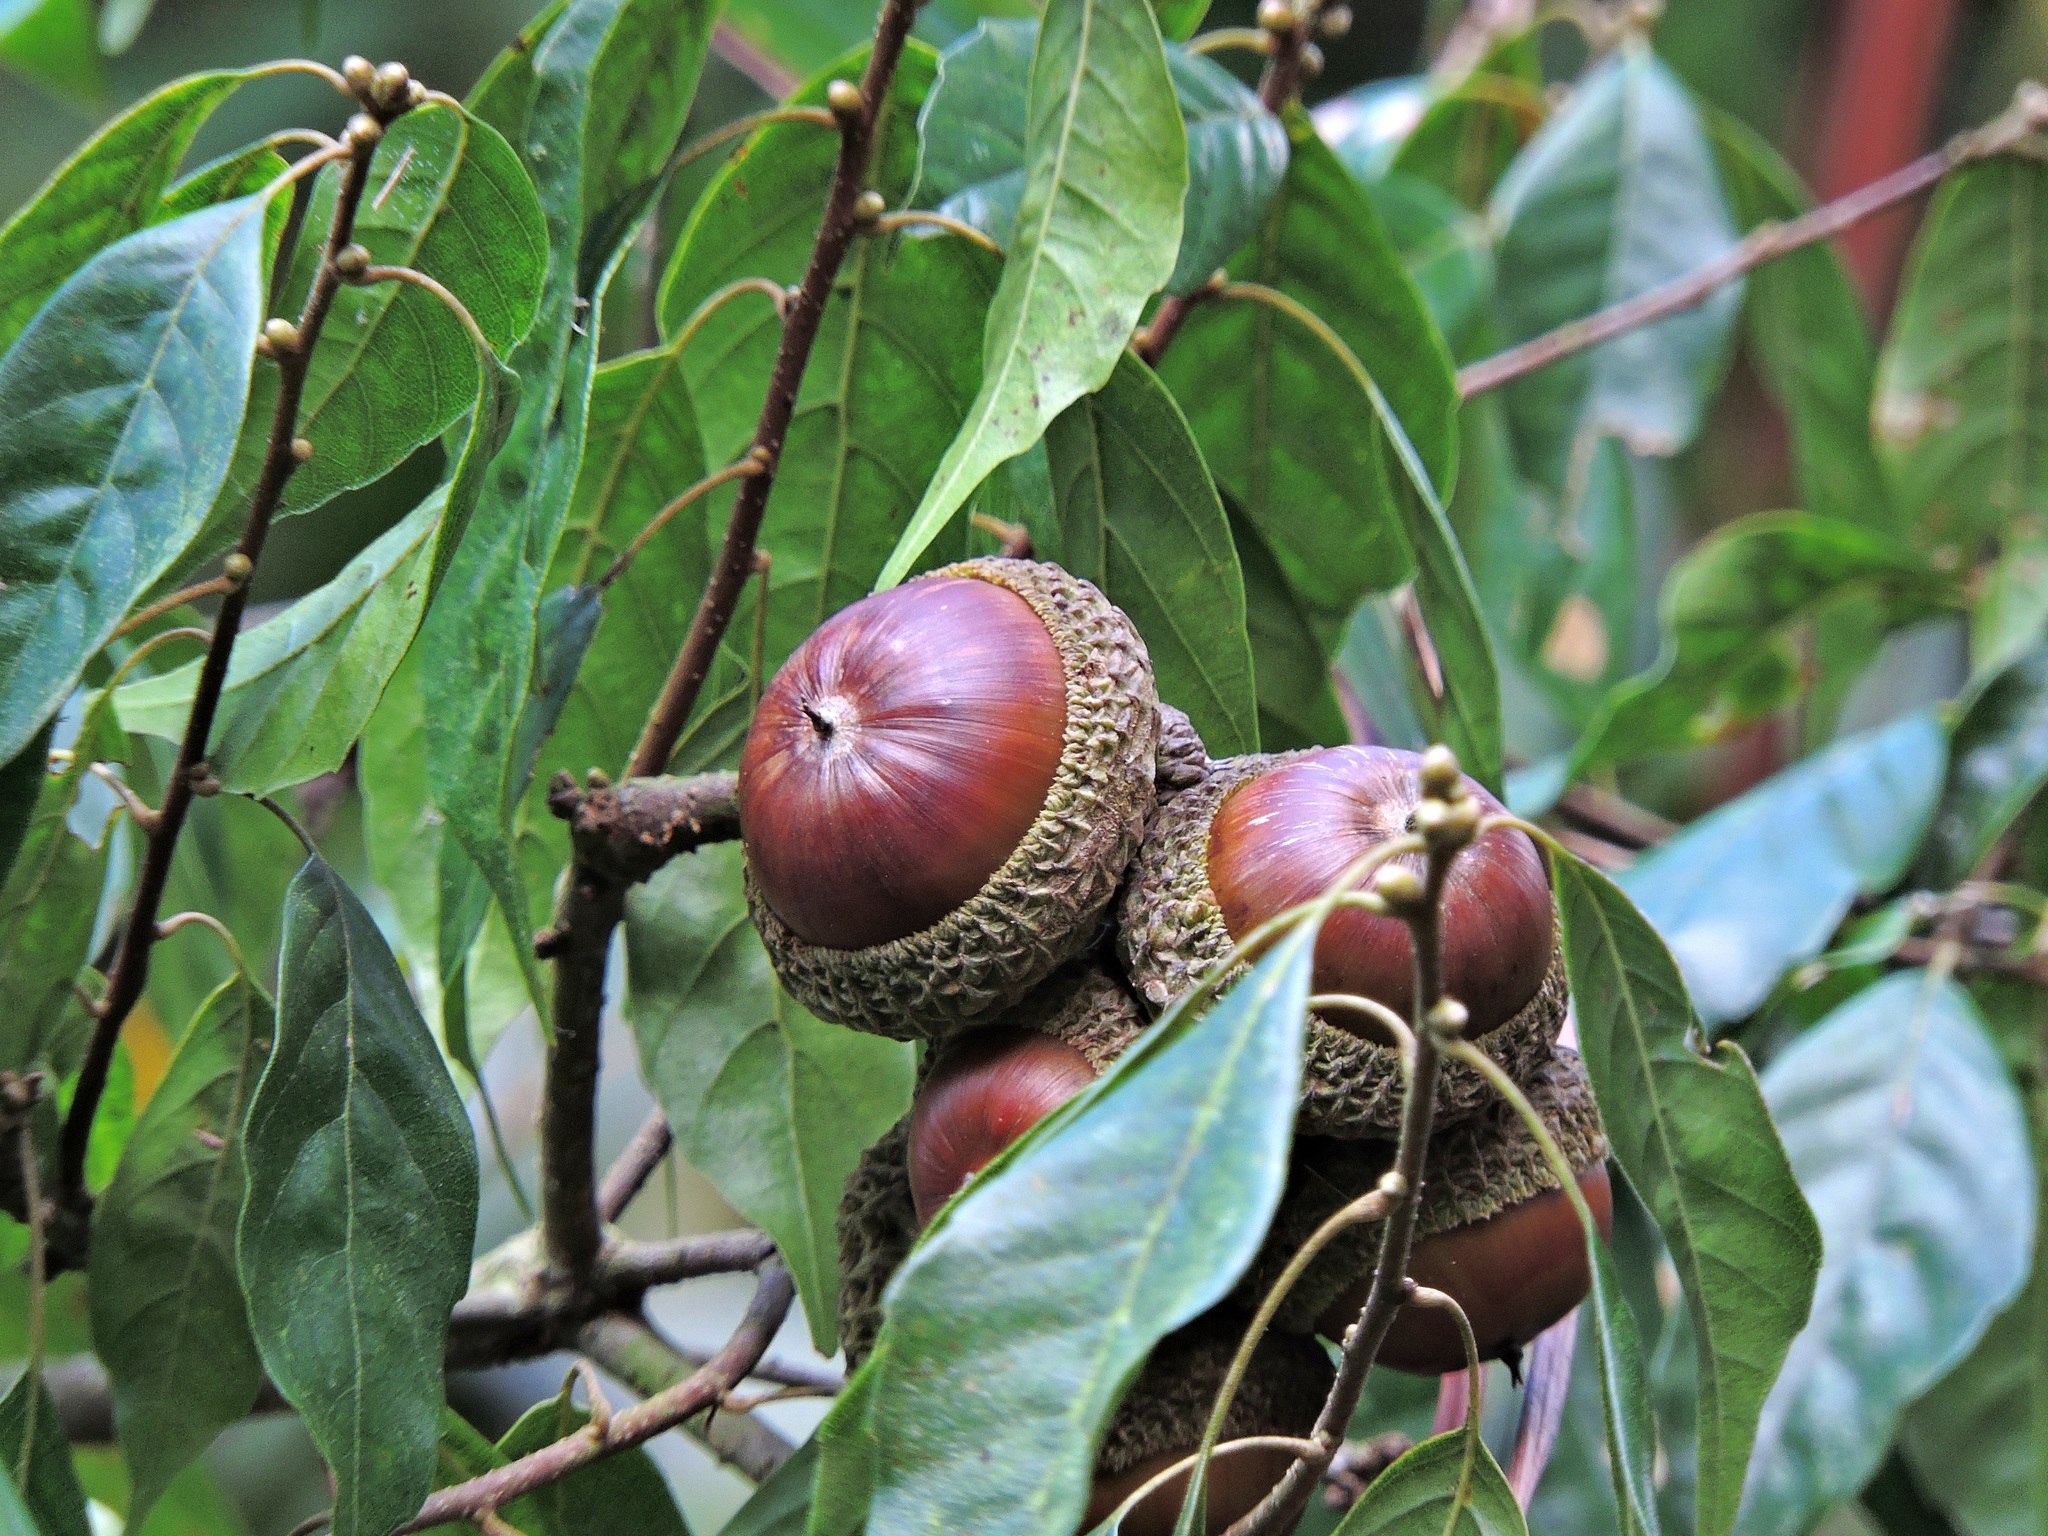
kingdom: Plantae
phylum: Tracheophyta
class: Magnoliopsida
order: Fagales
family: Fagaceae
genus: Lithocarpus
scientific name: Lithocarpus konishii
